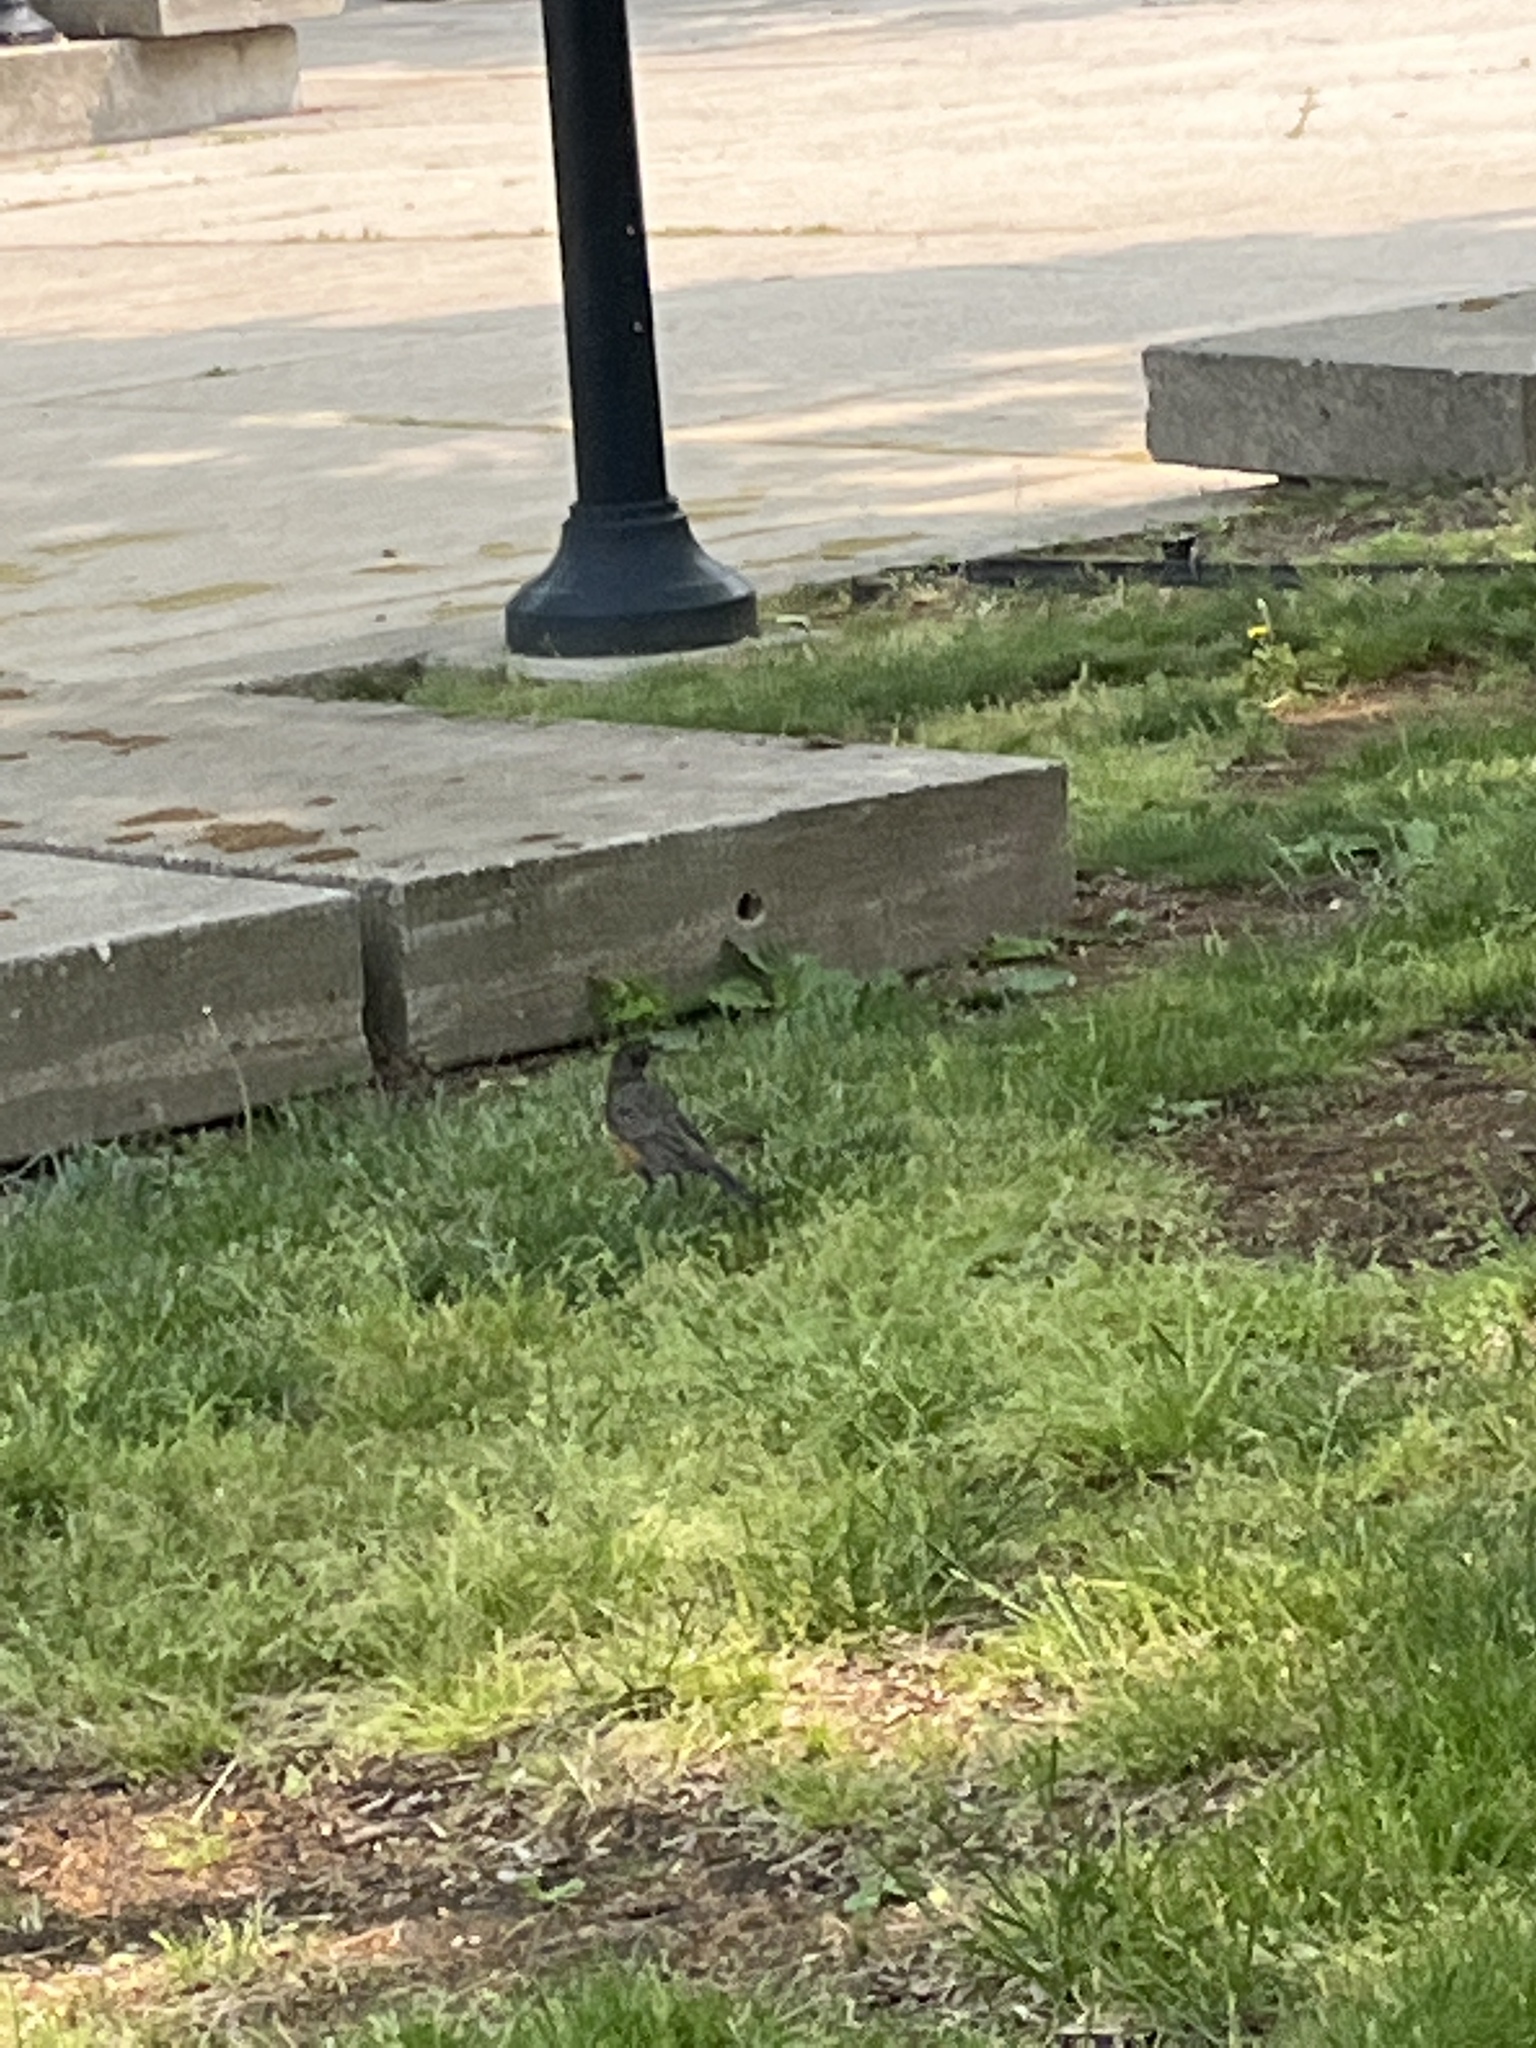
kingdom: Animalia
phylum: Chordata
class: Aves
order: Passeriformes
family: Turdidae
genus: Turdus
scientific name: Turdus migratorius
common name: American robin
